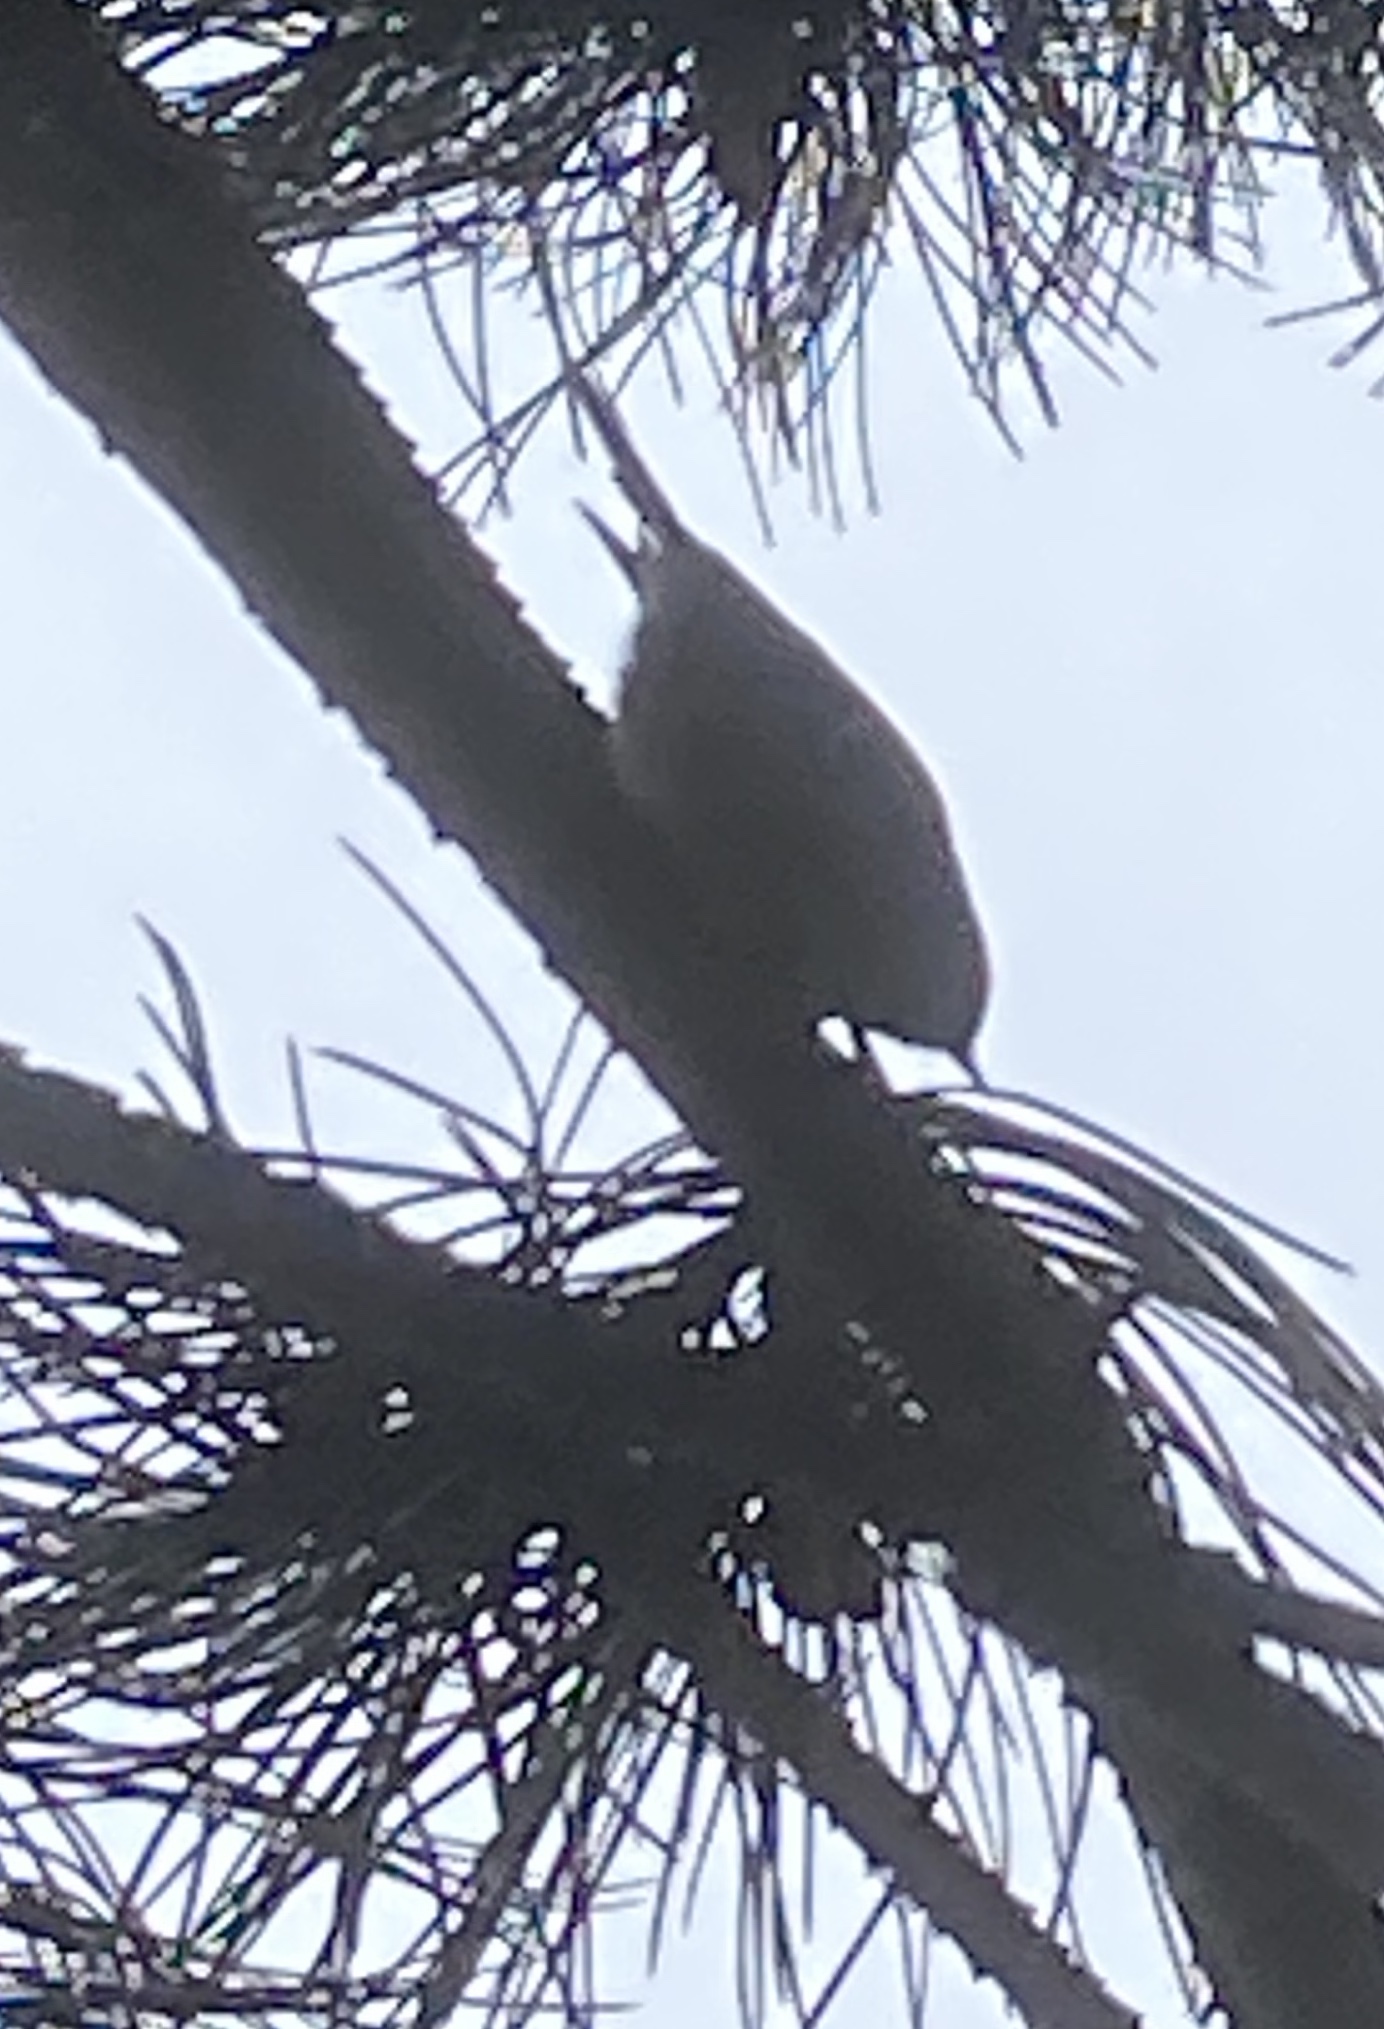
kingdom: Animalia
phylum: Chordata
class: Aves
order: Passeriformes
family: Regulidae
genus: Regulus
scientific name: Regulus regulus
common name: Goldcrest
